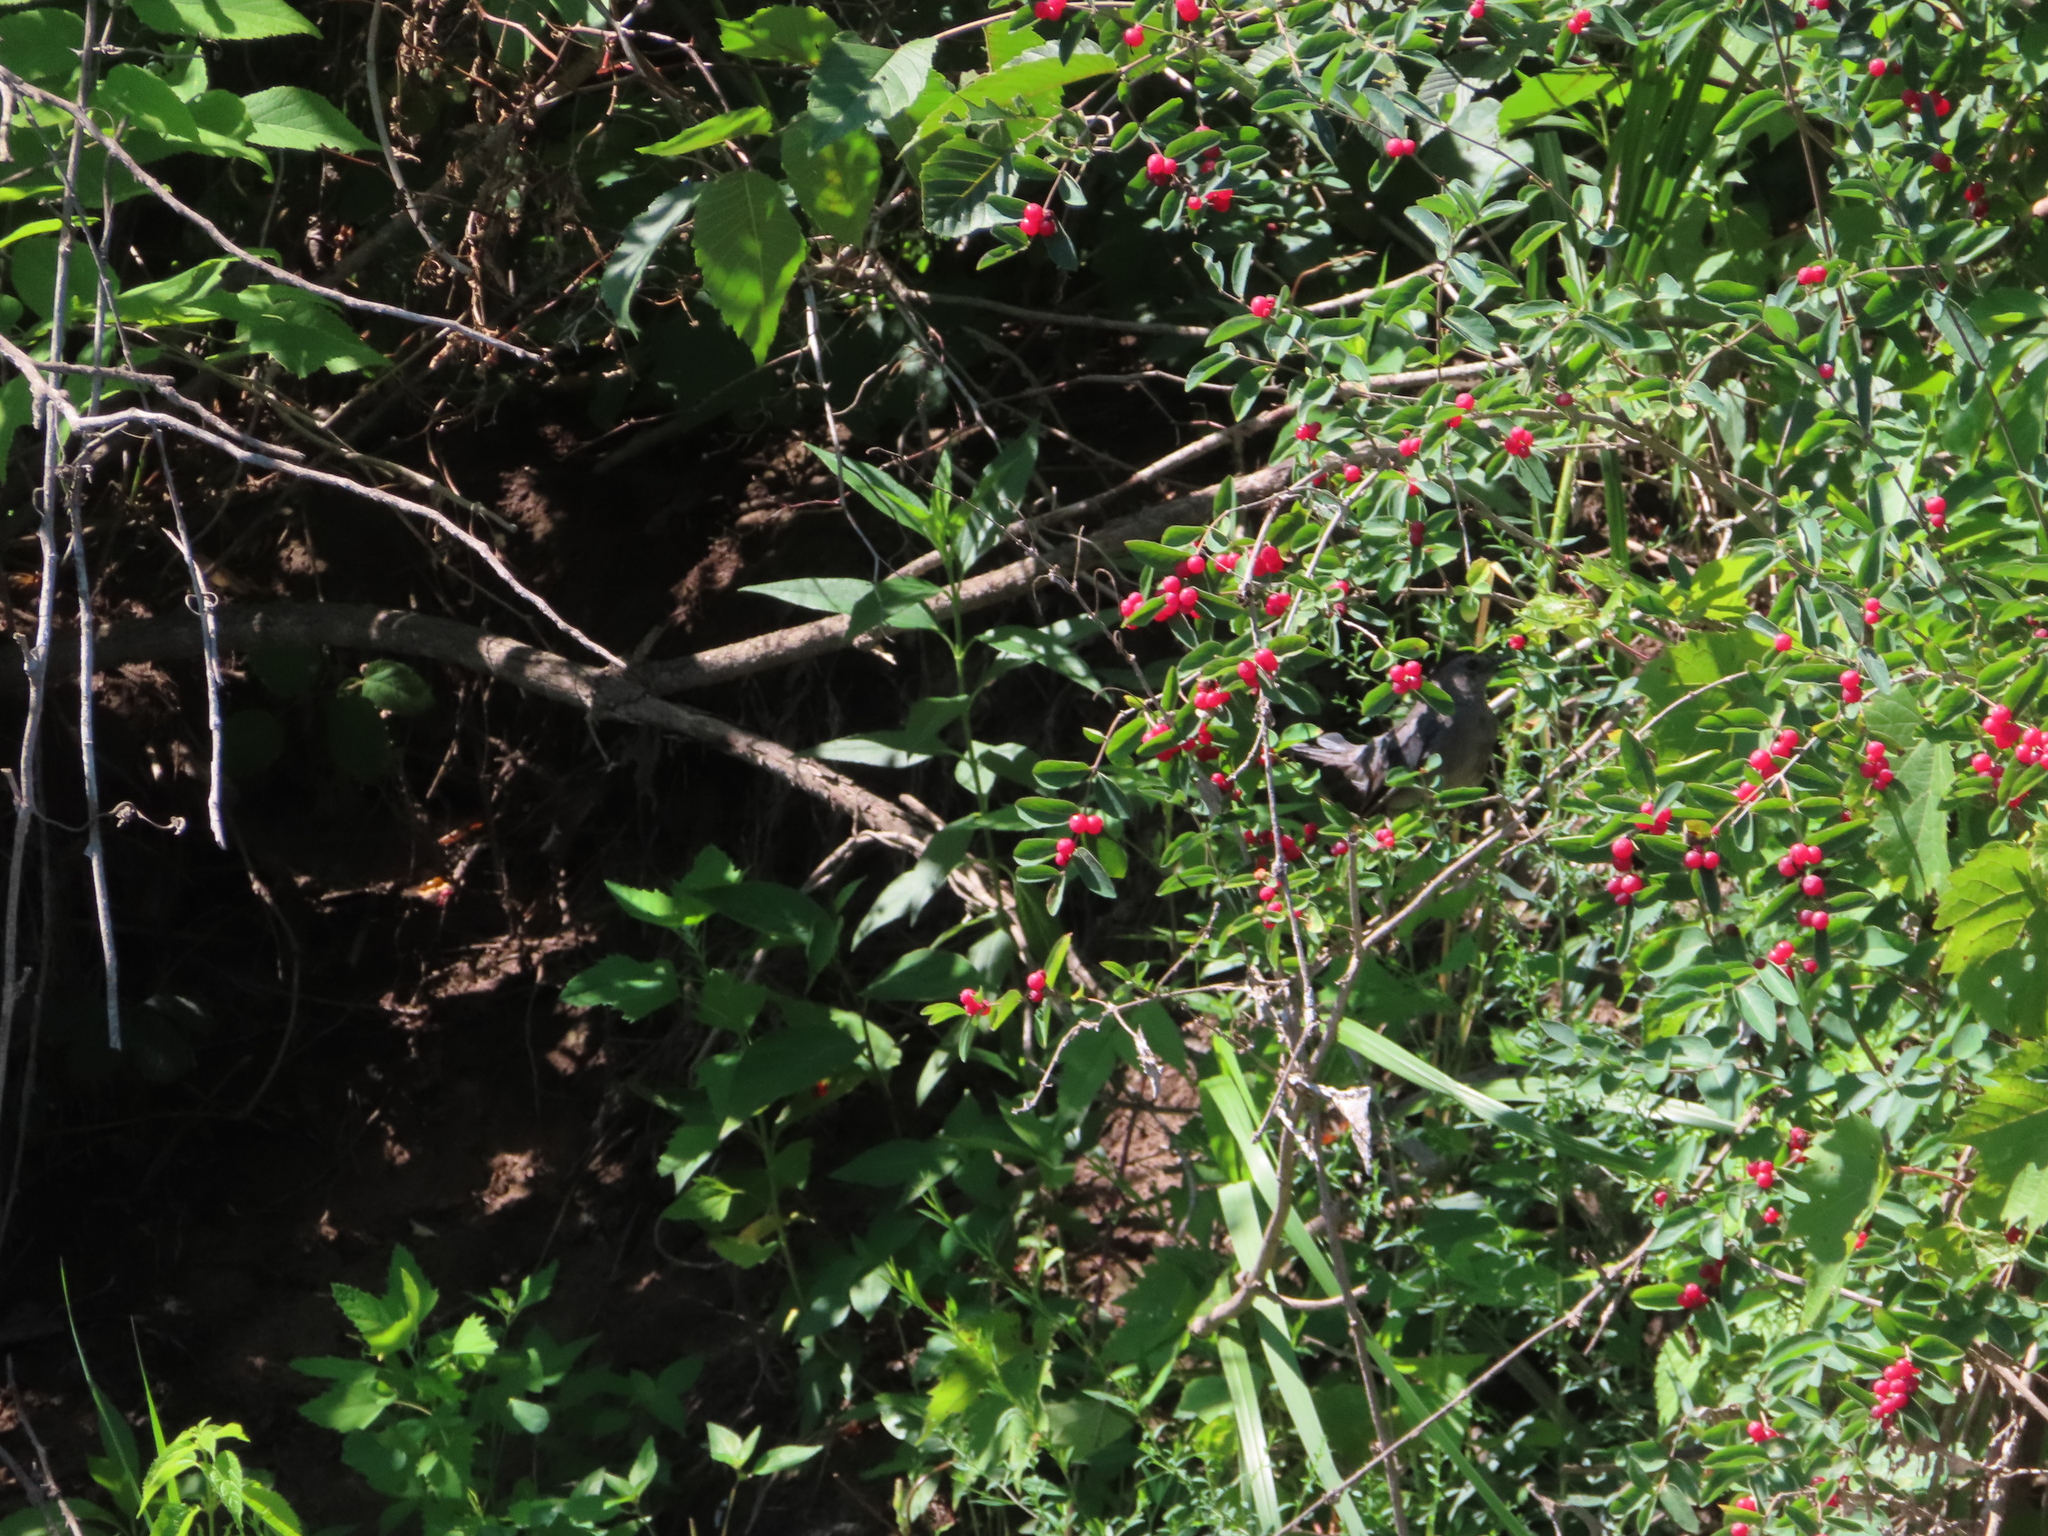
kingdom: Animalia
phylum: Chordata
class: Aves
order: Passeriformes
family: Mimidae
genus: Dumetella
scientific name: Dumetella carolinensis
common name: Gray catbird
